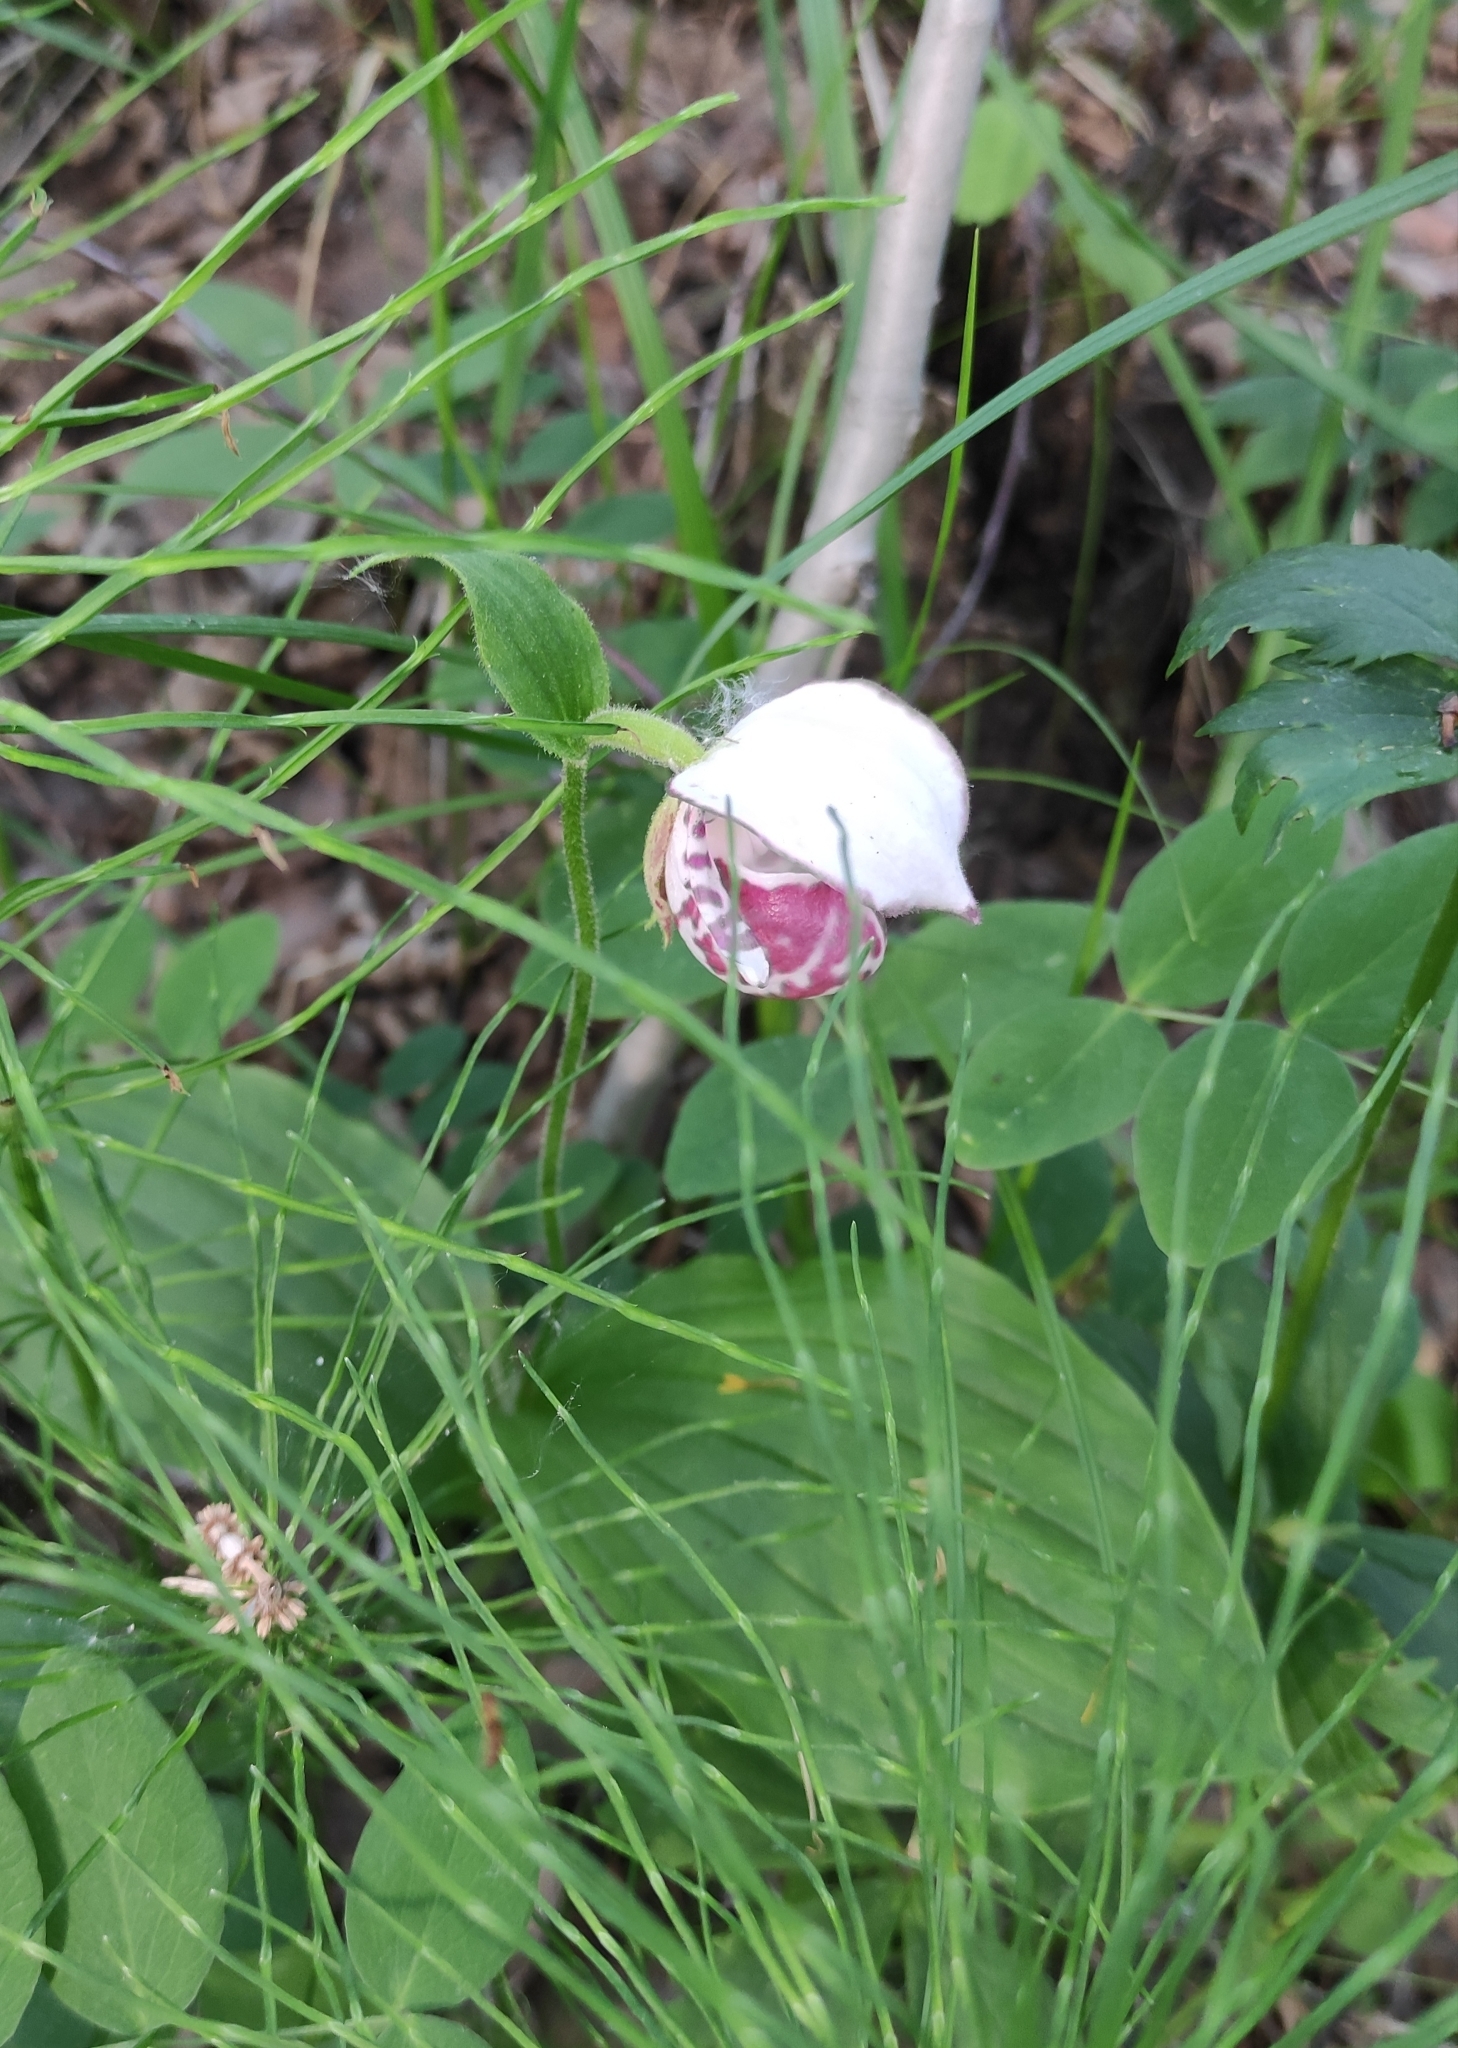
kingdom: Plantae
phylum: Tracheophyta
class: Liliopsida
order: Asparagales
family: Orchidaceae
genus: Cypripedium
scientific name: Cypripedium guttatum
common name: Pink lady slipper
